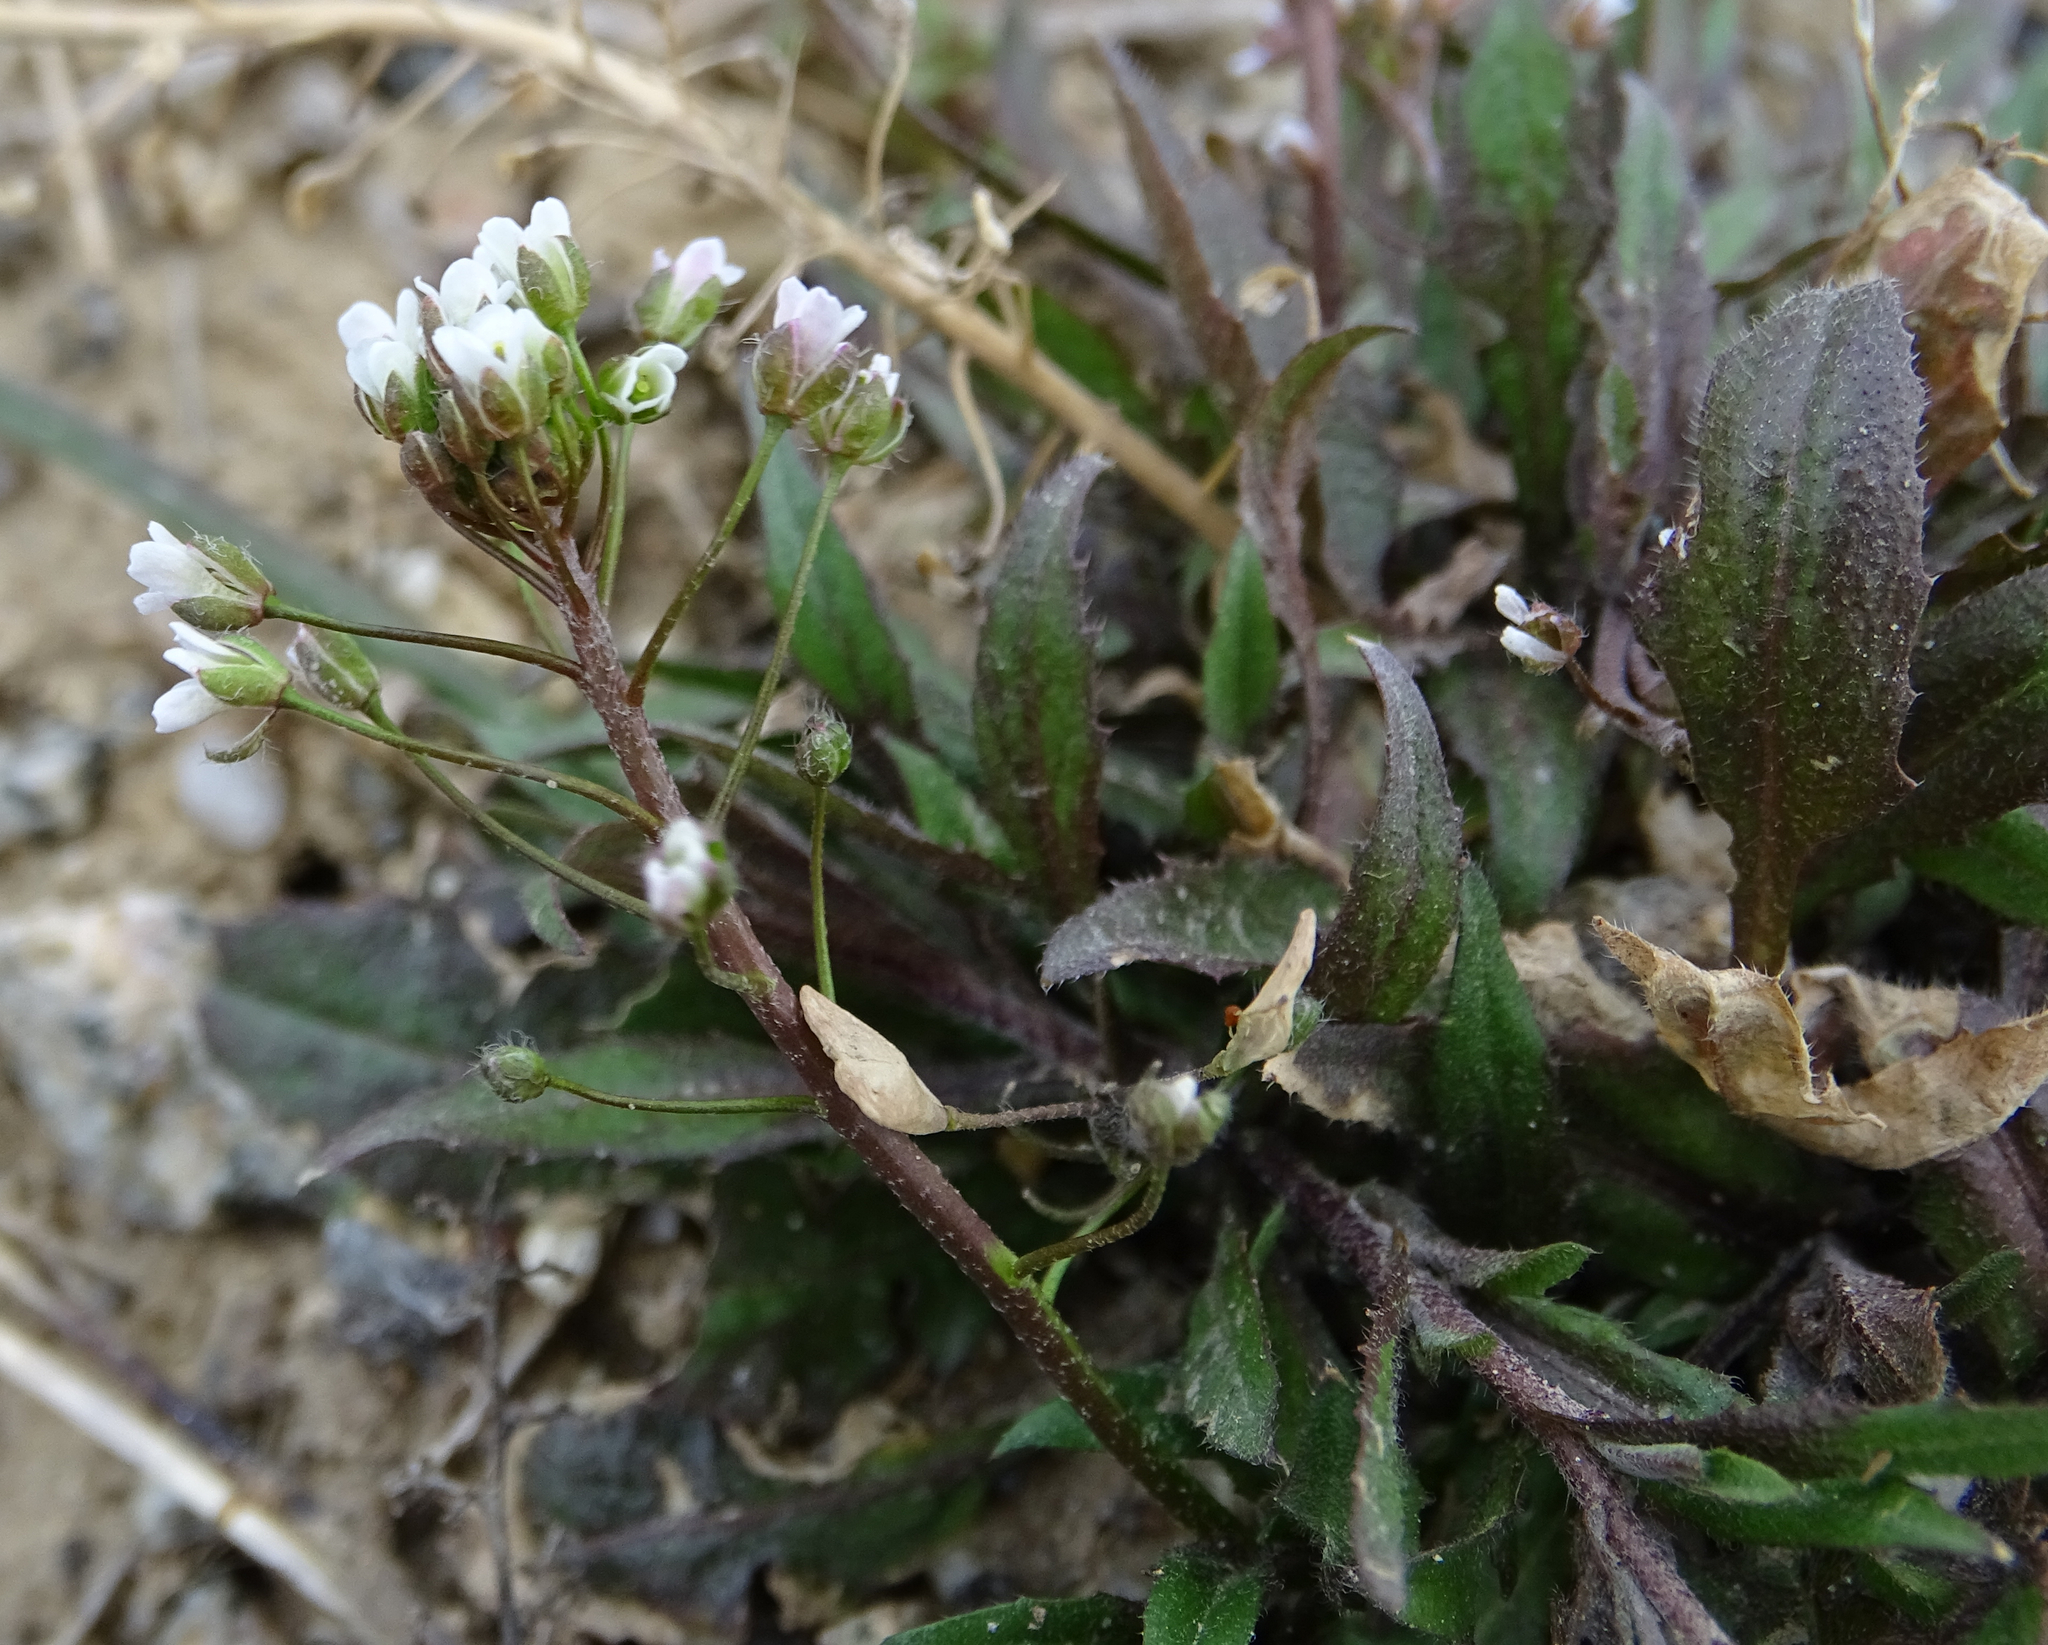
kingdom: Plantae
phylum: Tracheophyta
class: Magnoliopsida
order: Brassicales
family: Brassicaceae
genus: Capsella
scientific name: Capsella bursa-pastoris
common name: Shepherd's purse
